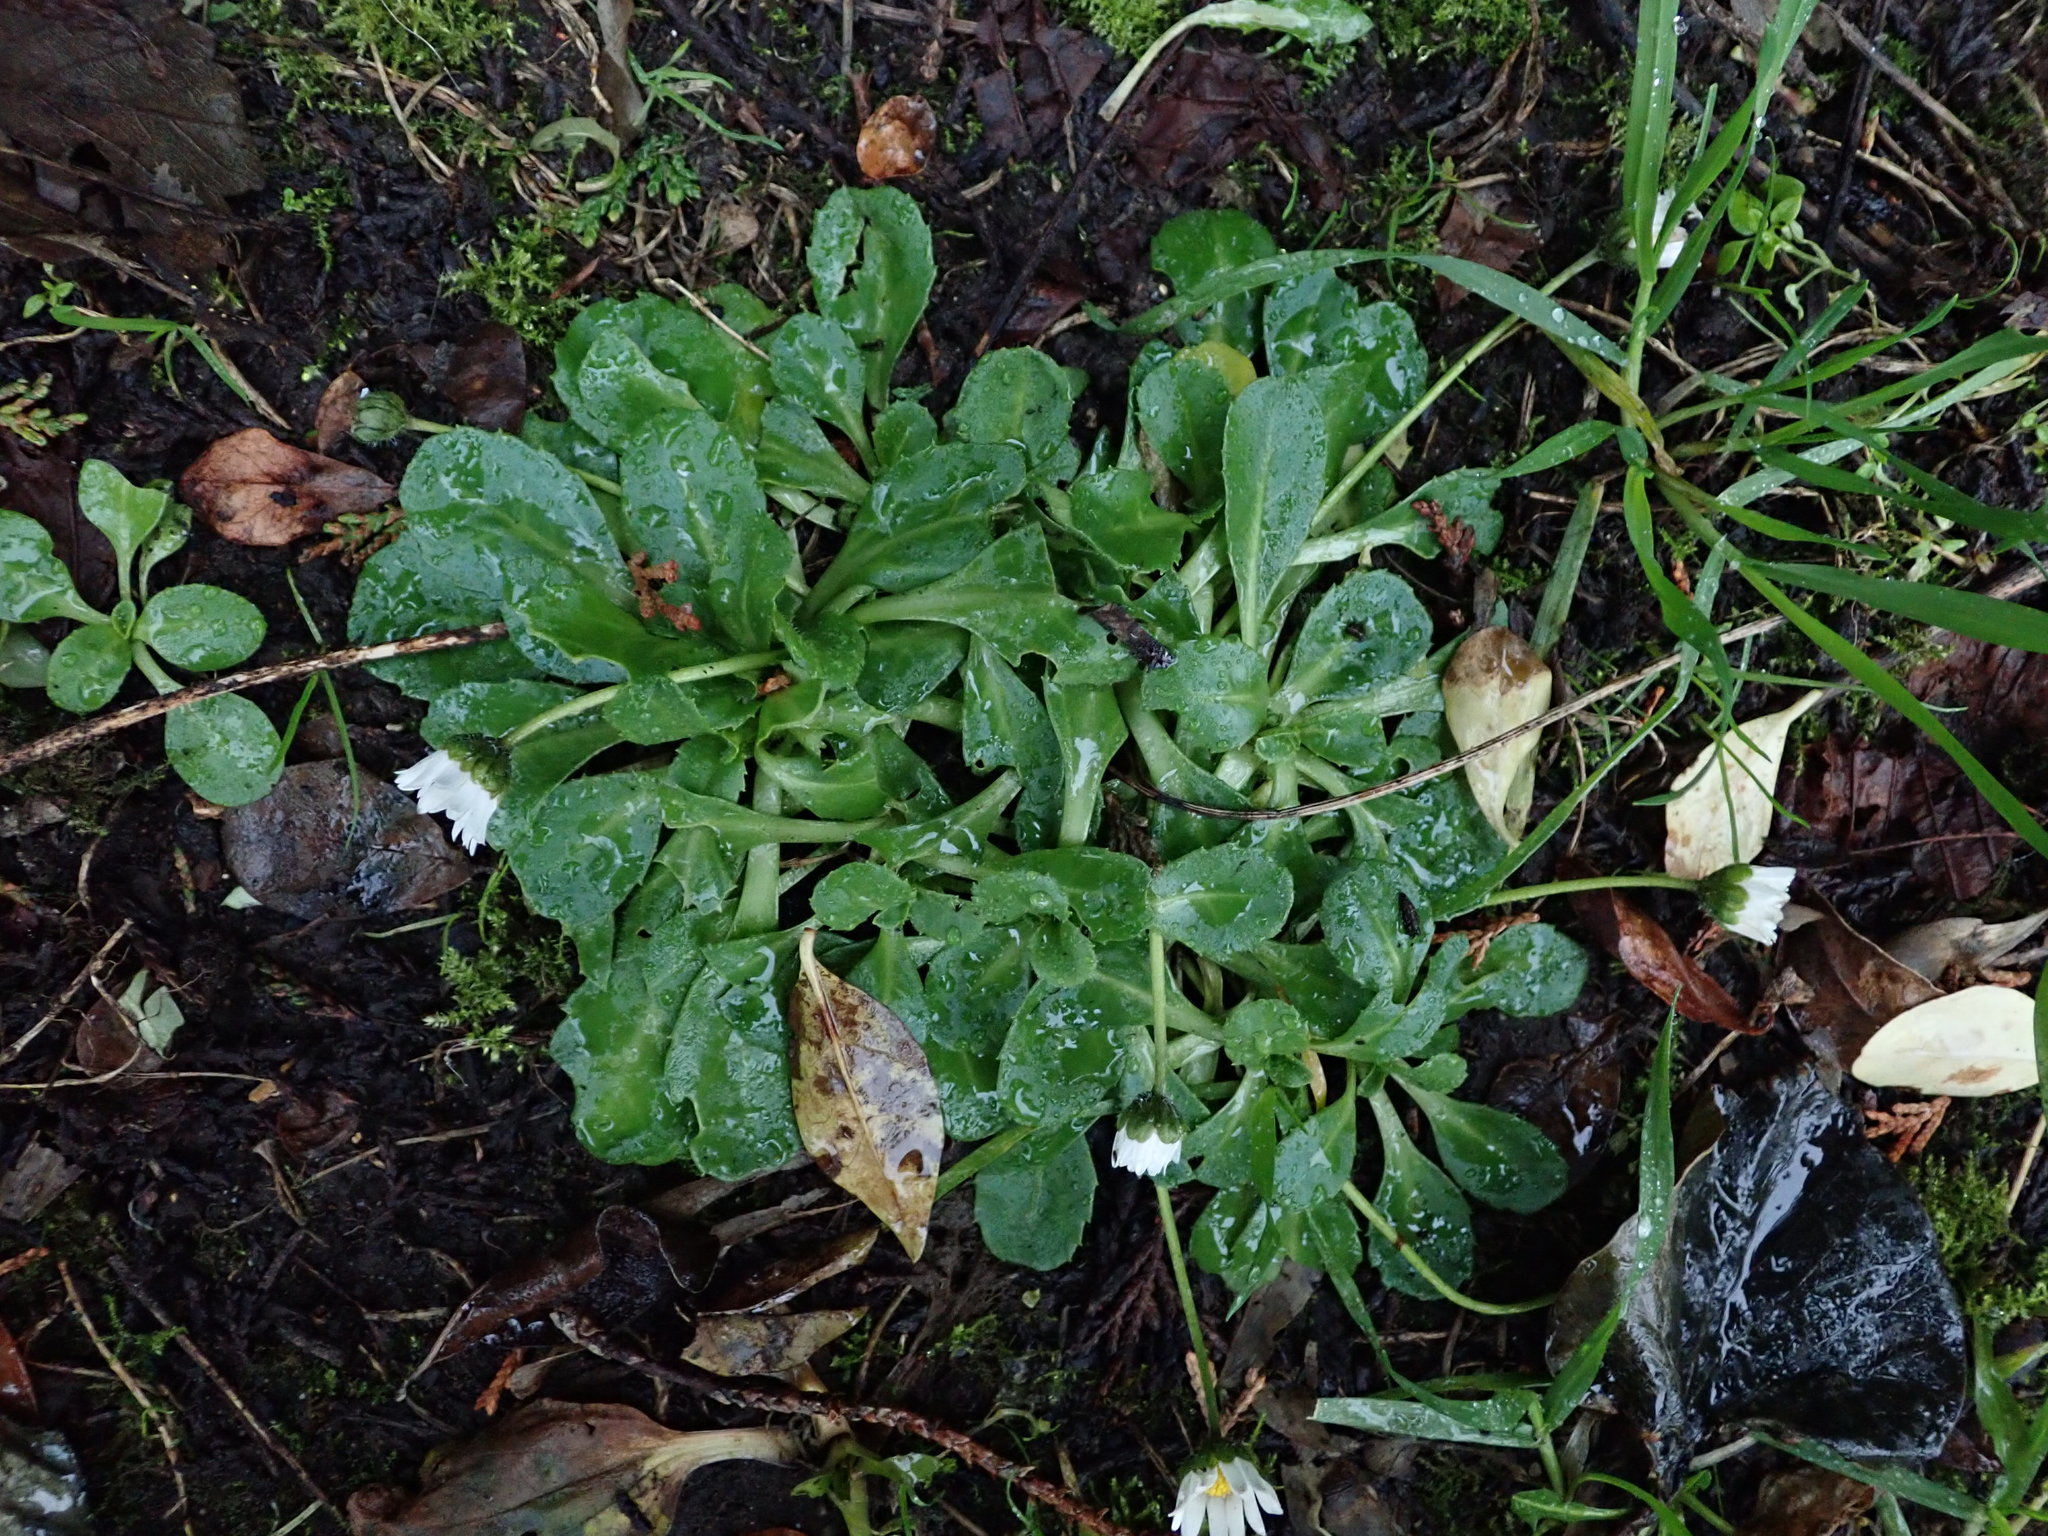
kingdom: Plantae
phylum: Tracheophyta
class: Magnoliopsida
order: Asterales
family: Asteraceae
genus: Bellis
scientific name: Bellis perennis
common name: Lawndaisy
